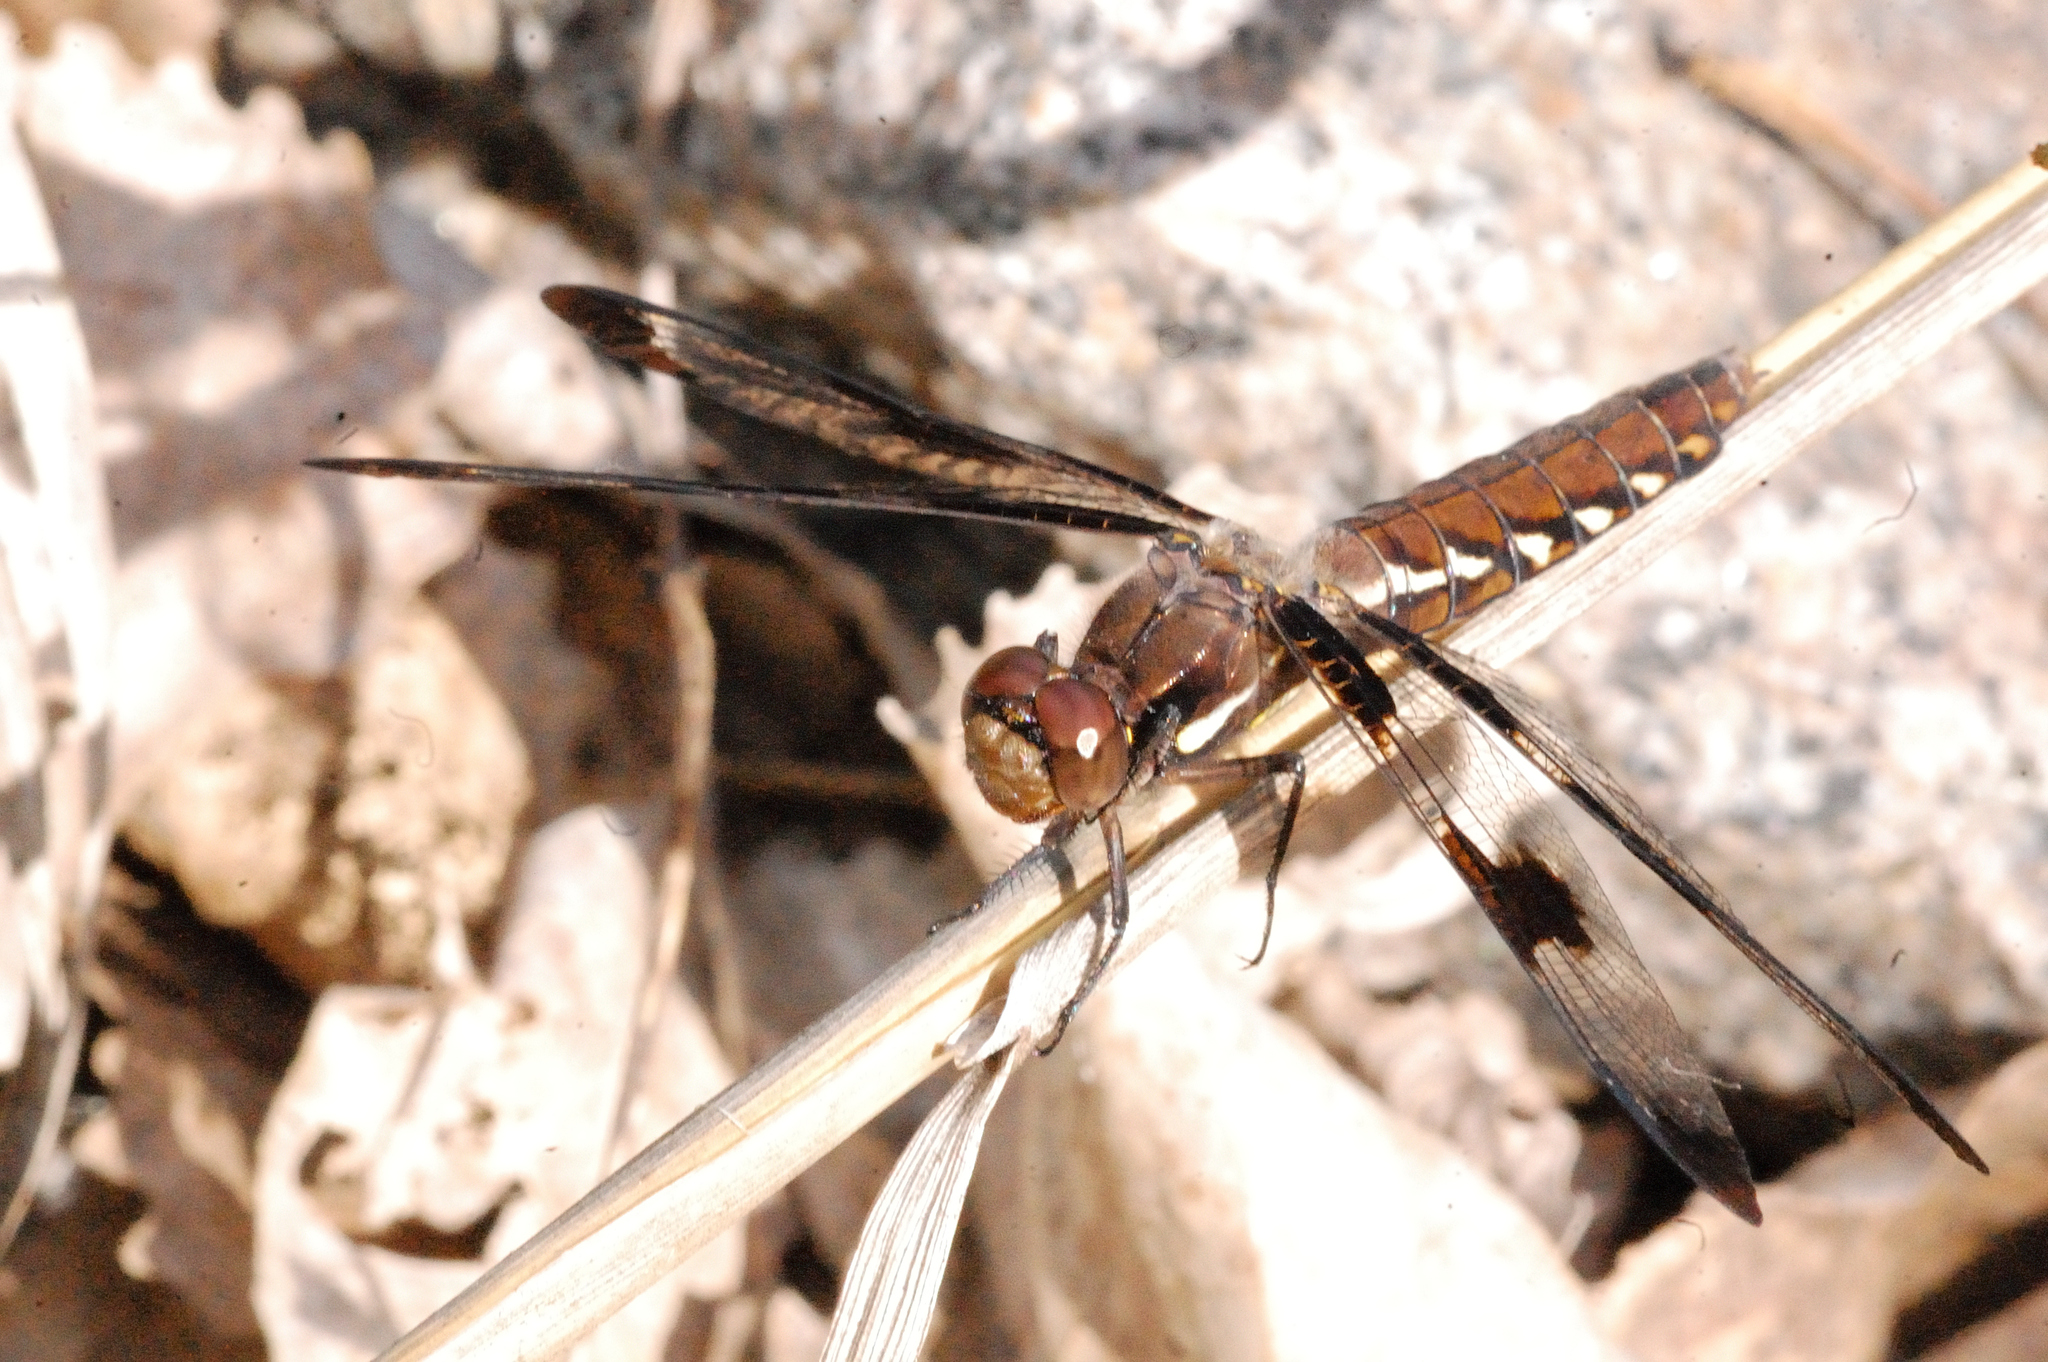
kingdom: Animalia
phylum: Arthropoda
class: Insecta
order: Odonata
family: Libellulidae
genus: Plathemis
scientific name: Plathemis lydia
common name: Common whitetail
